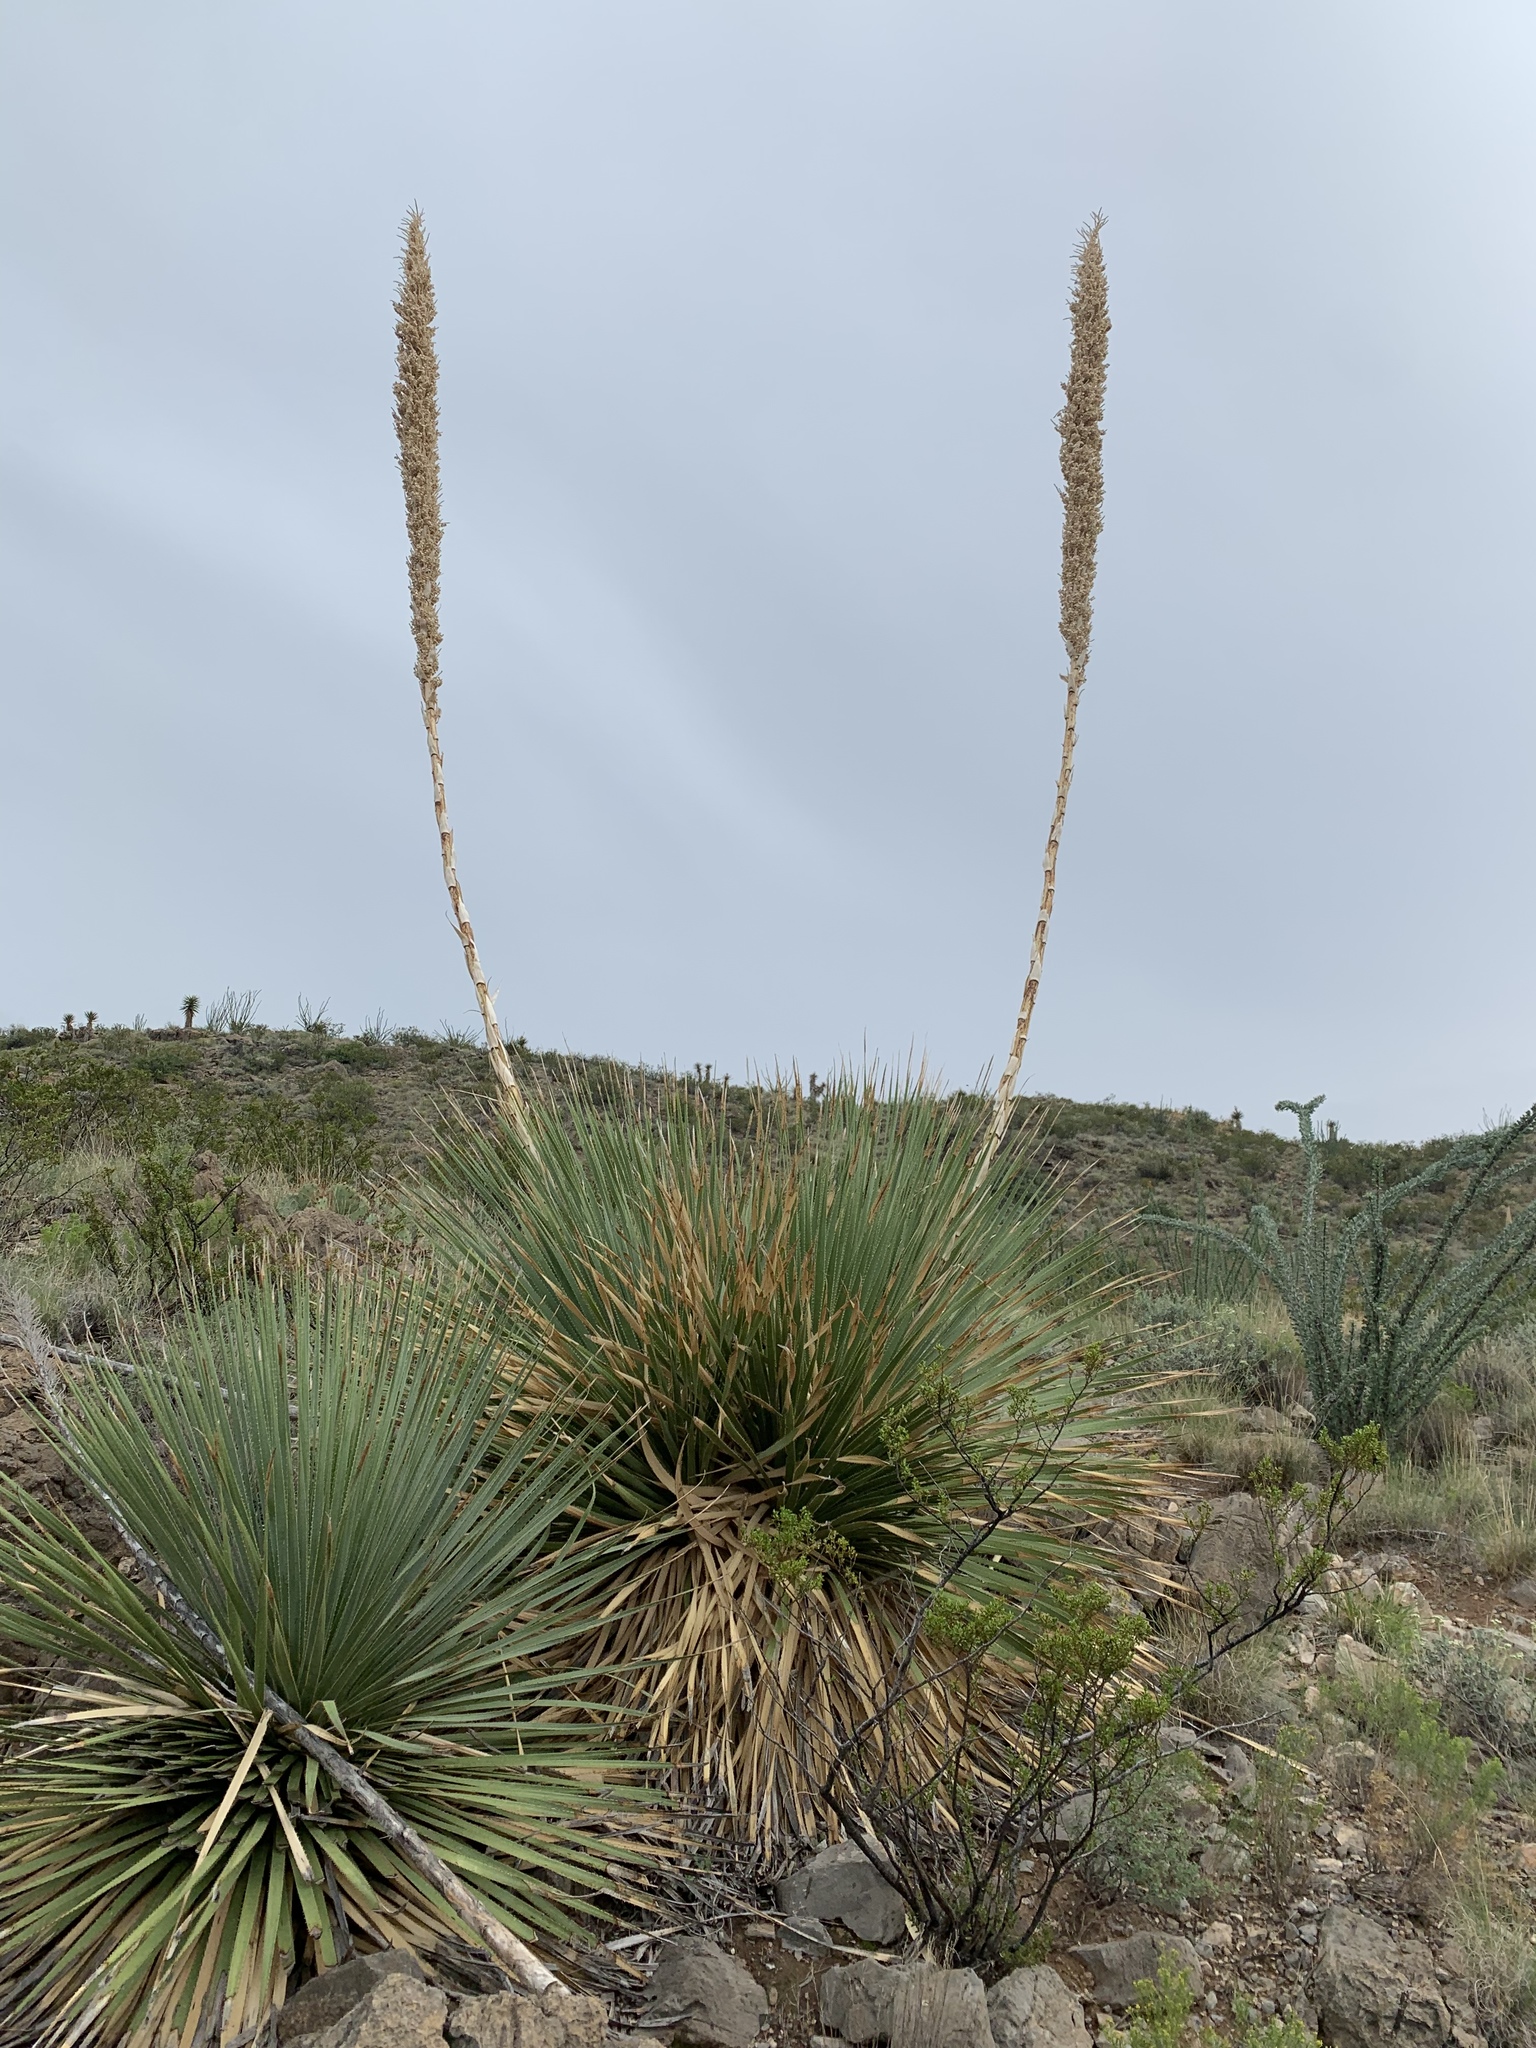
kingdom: Plantae
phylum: Tracheophyta
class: Liliopsida
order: Asparagales
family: Asparagaceae
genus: Dasylirion
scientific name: Dasylirion wheeleri
